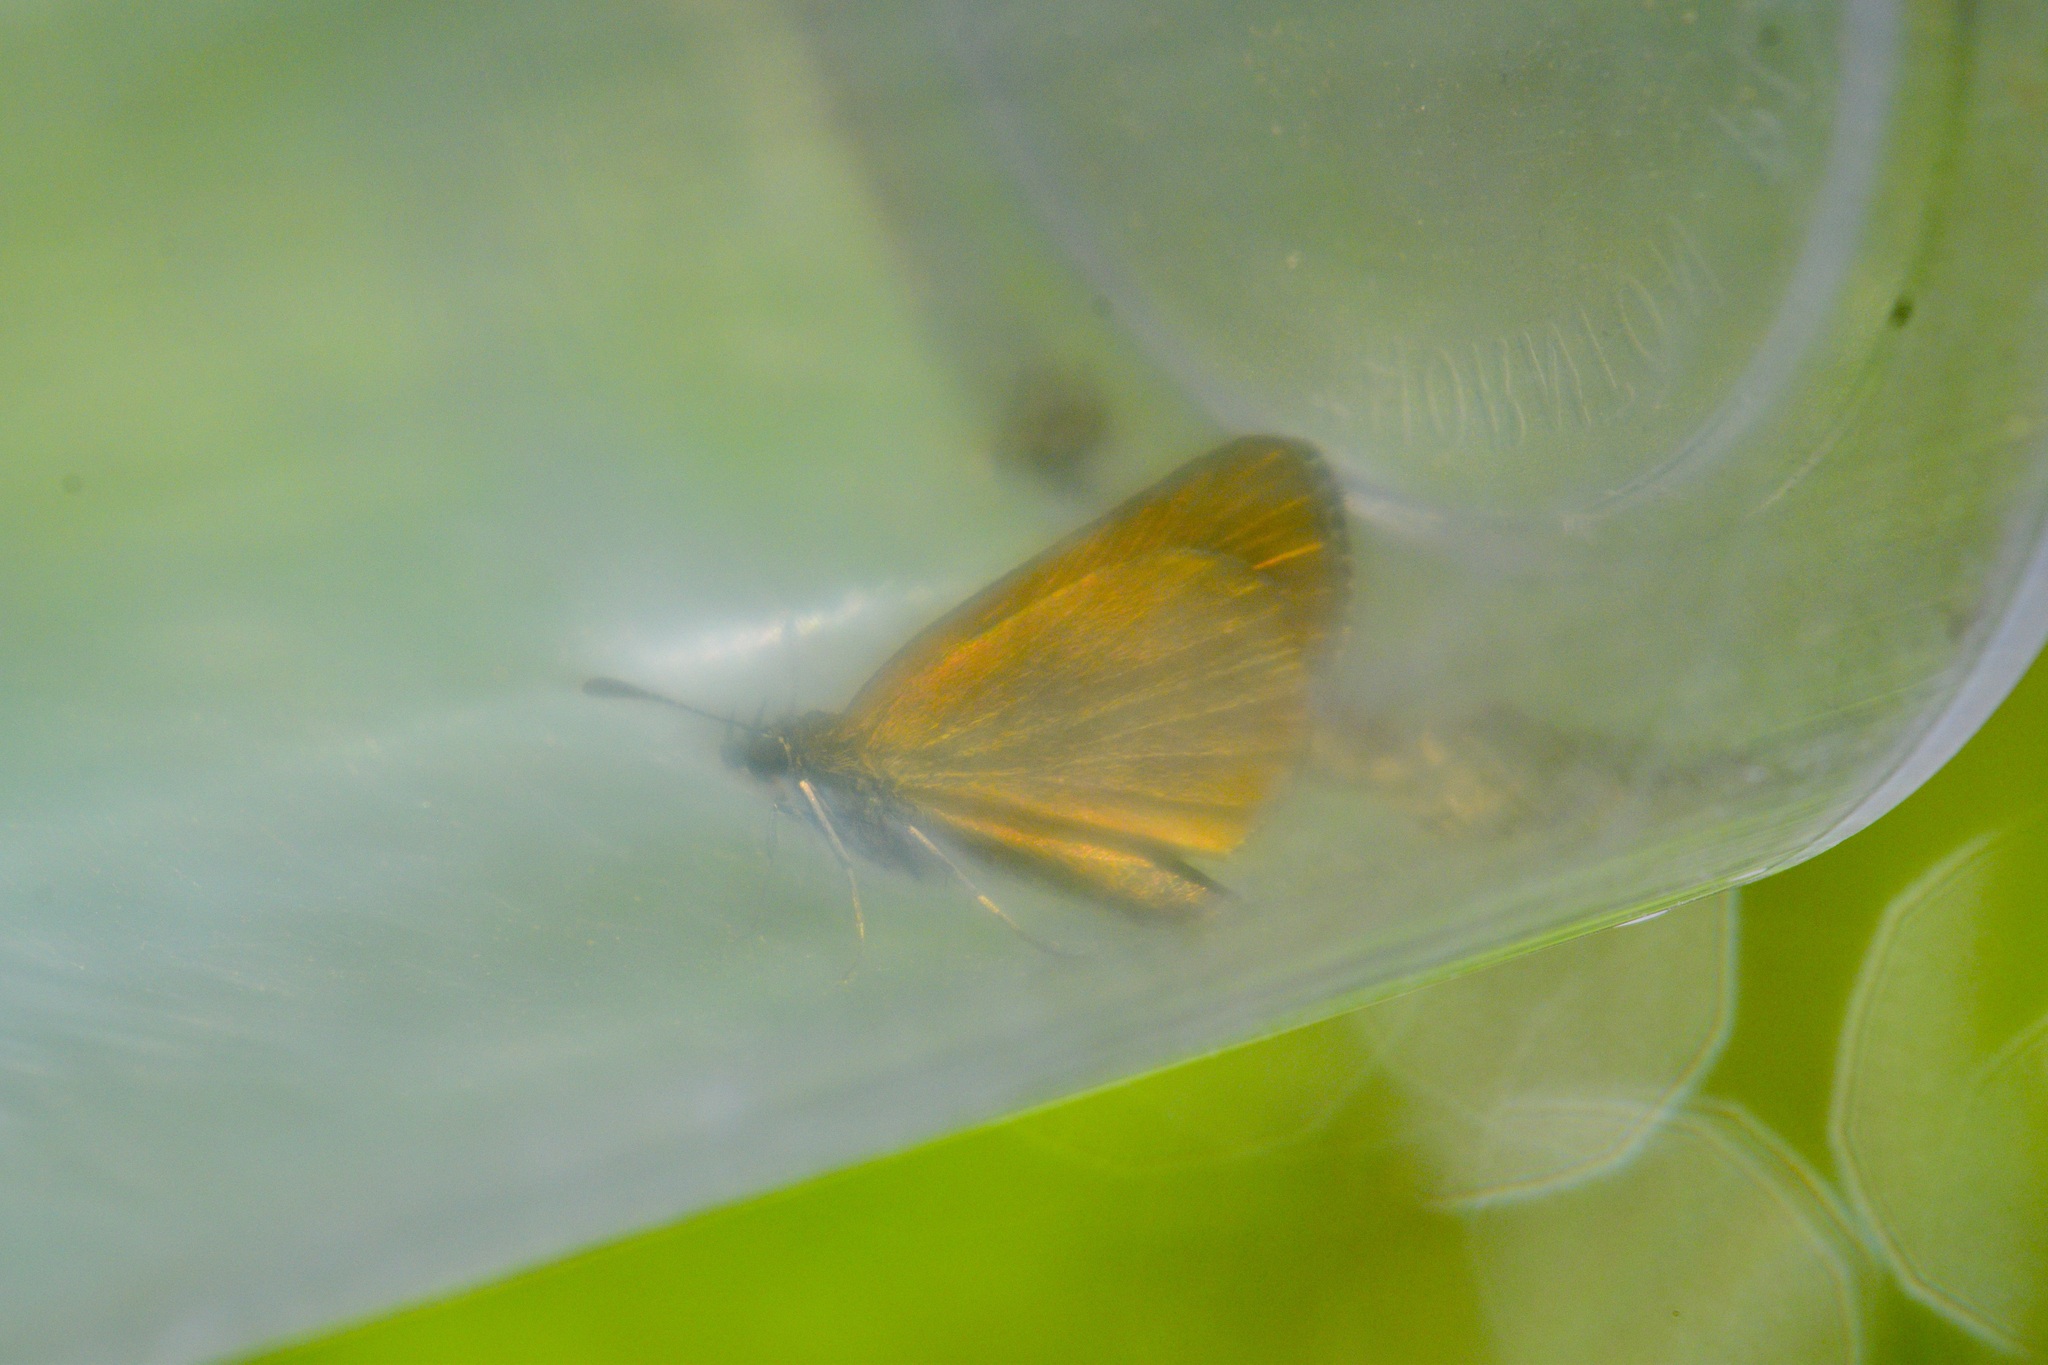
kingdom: Animalia
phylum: Arthropoda
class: Insecta
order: Lepidoptera
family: Hesperiidae
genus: Ancyloxypha
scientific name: Ancyloxypha numitor
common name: Least skipper
